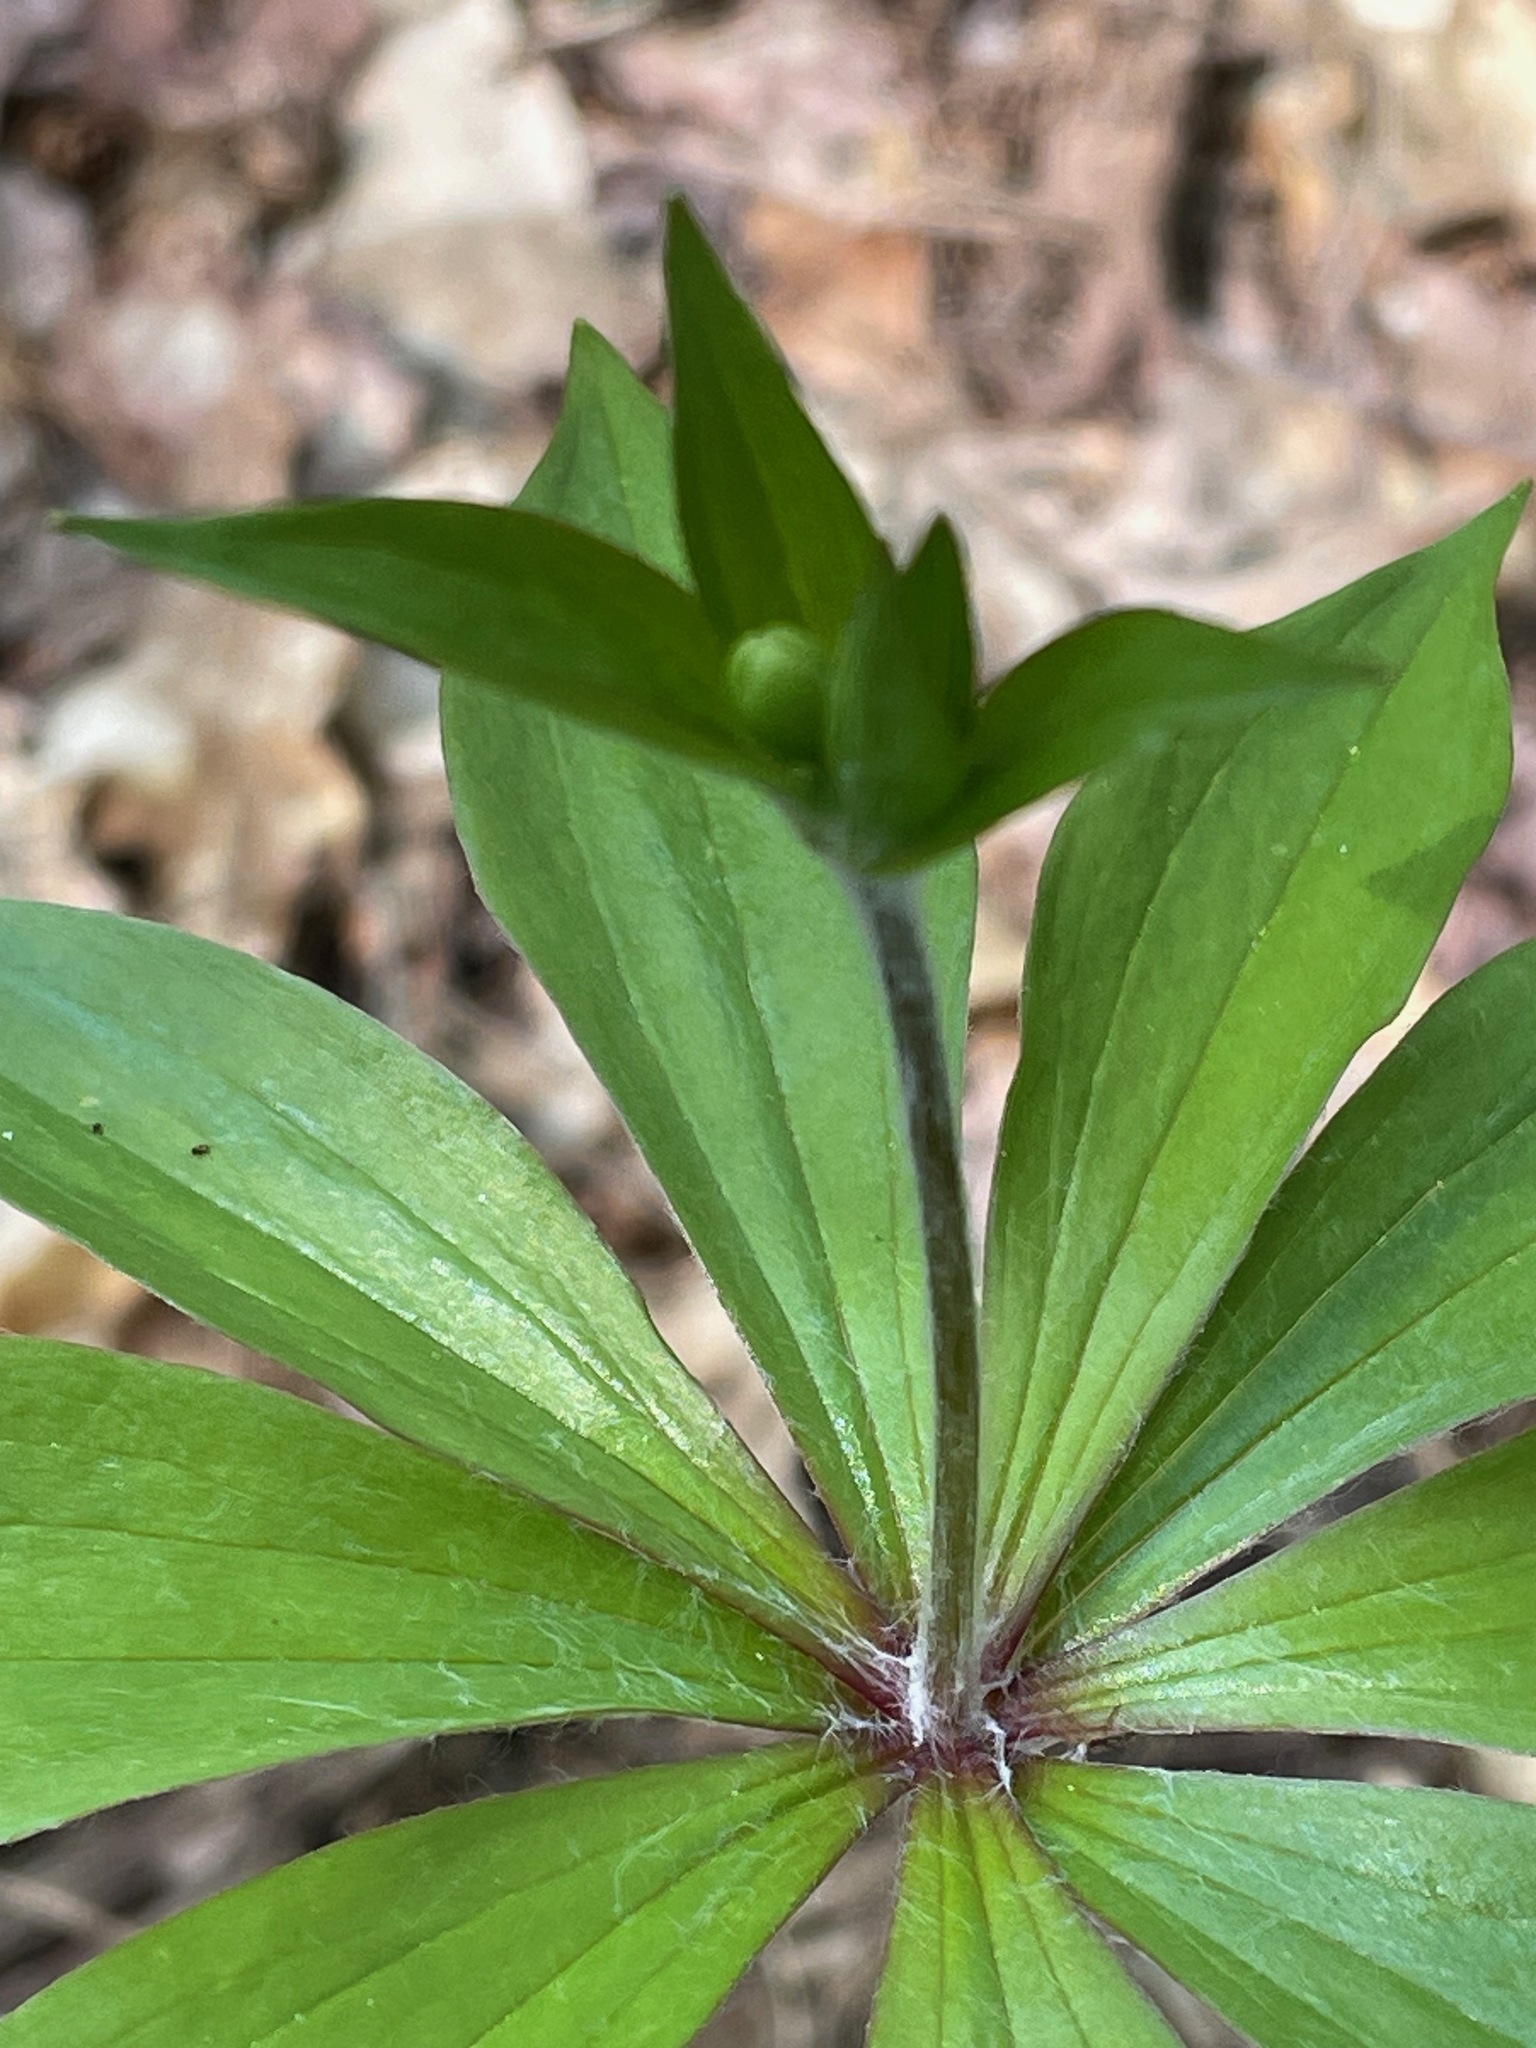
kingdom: Plantae
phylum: Tracheophyta
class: Liliopsida
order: Liliales
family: Liliaceae
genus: Medeola
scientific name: Medeola virginiana
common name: Indian cucumber-root
